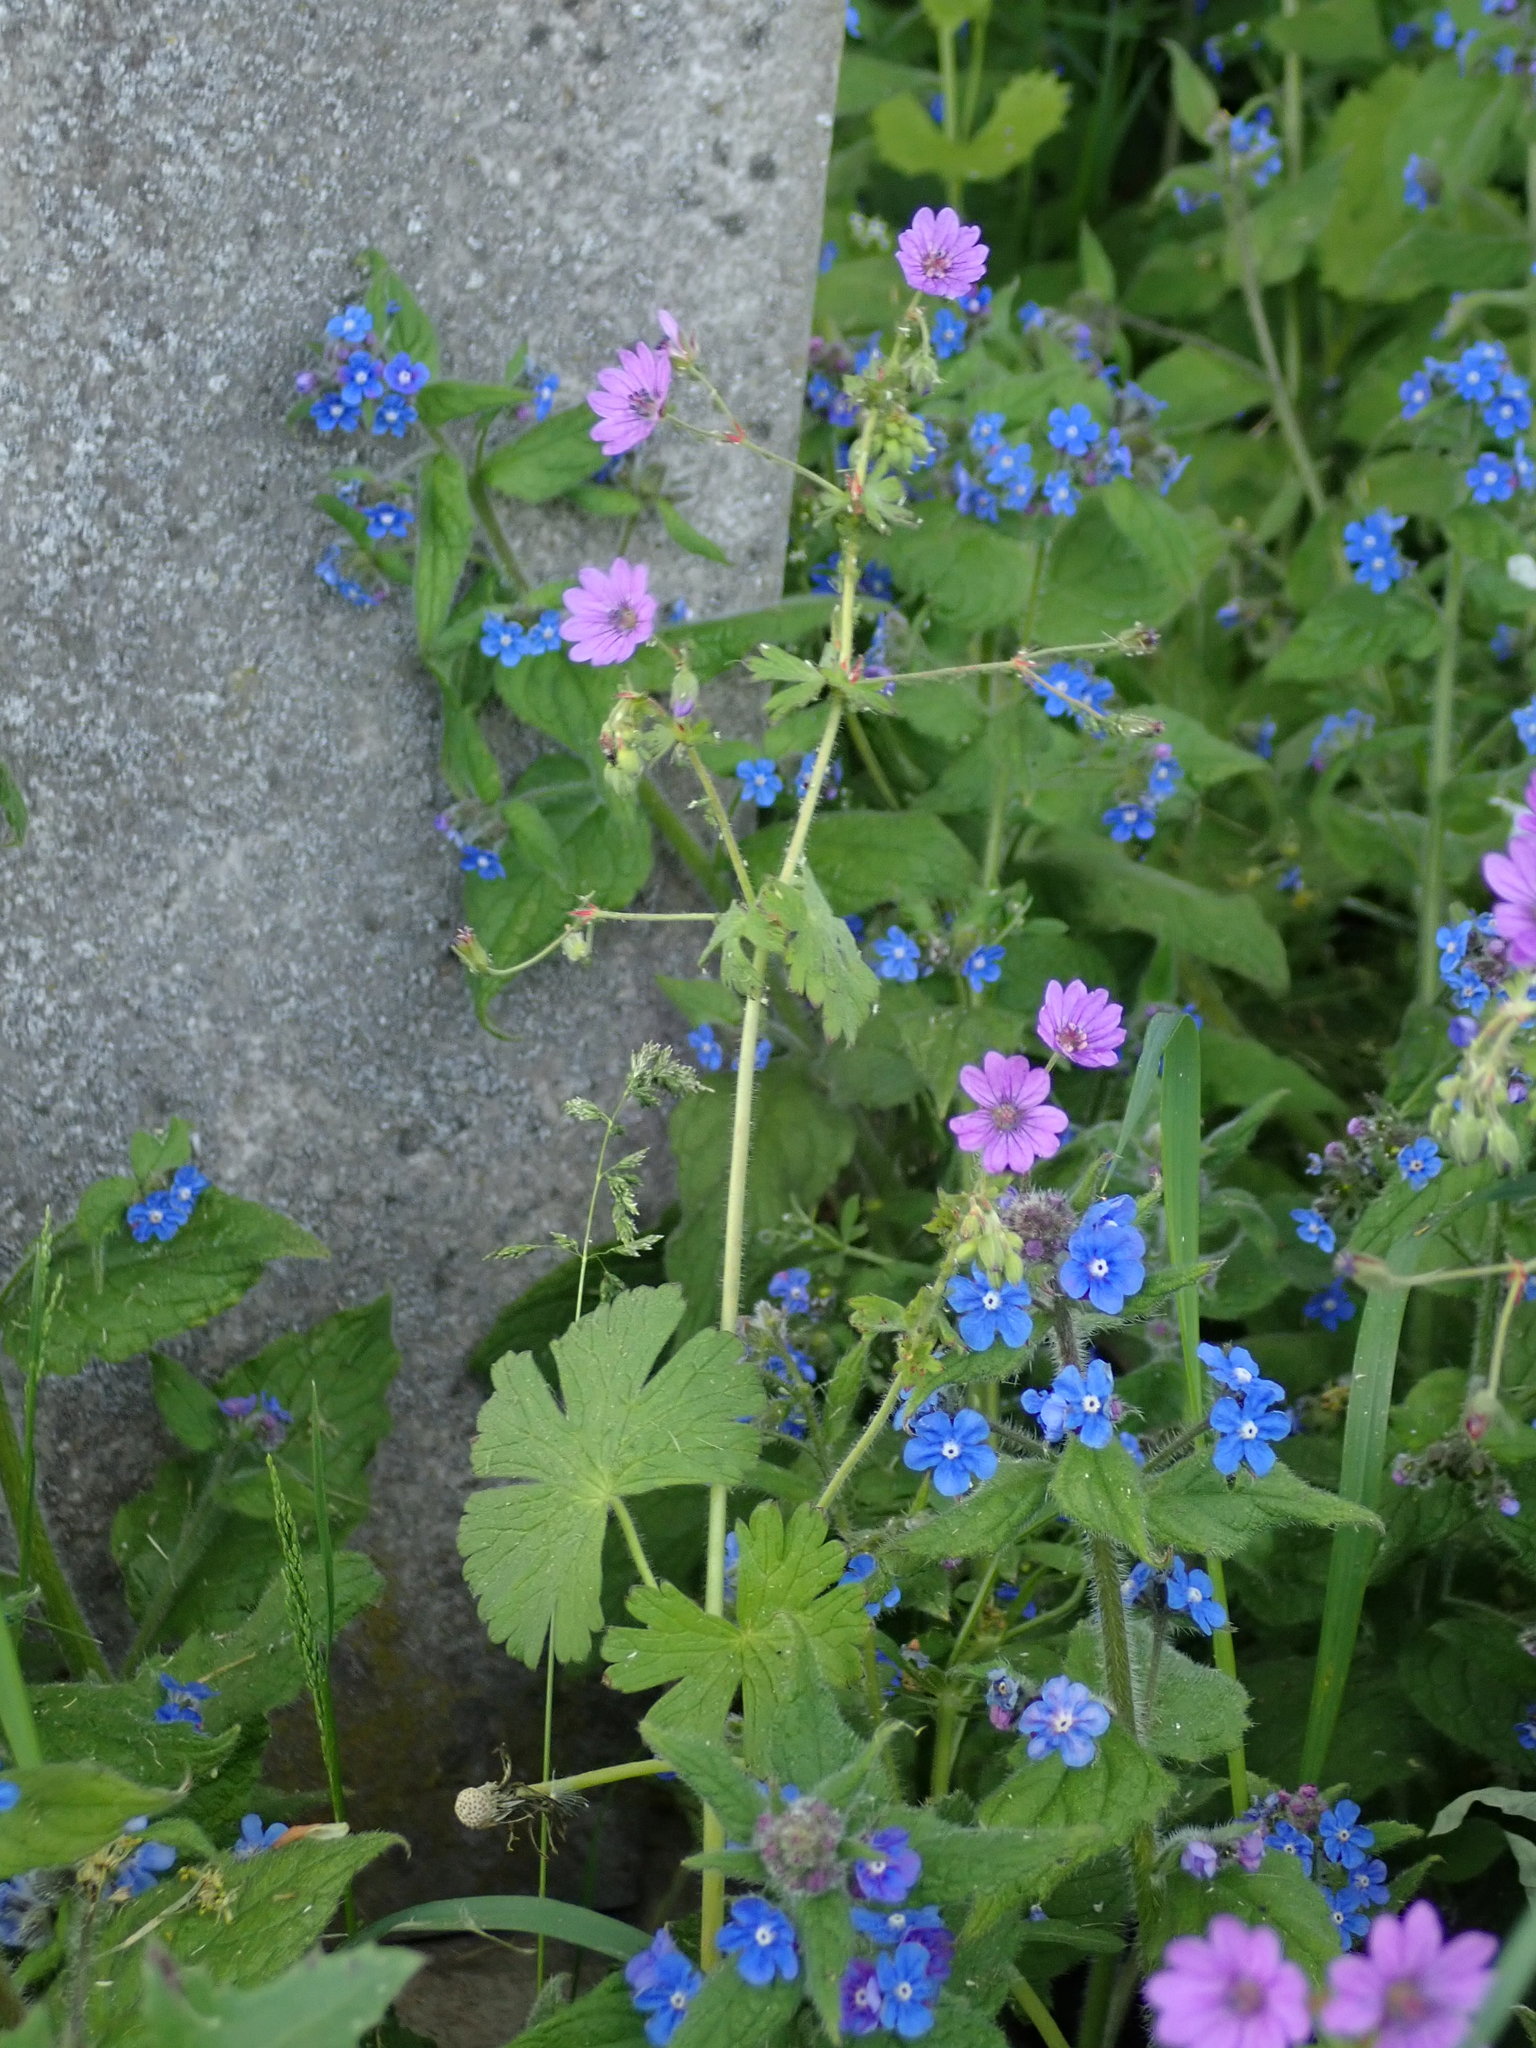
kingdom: Plantae
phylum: Tracheophyta
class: Magnoliopsida
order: Geraniales
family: Geraniaceae
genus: Geranium
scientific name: Geranium pyrenaicum
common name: Hedgerow crane's-bill
